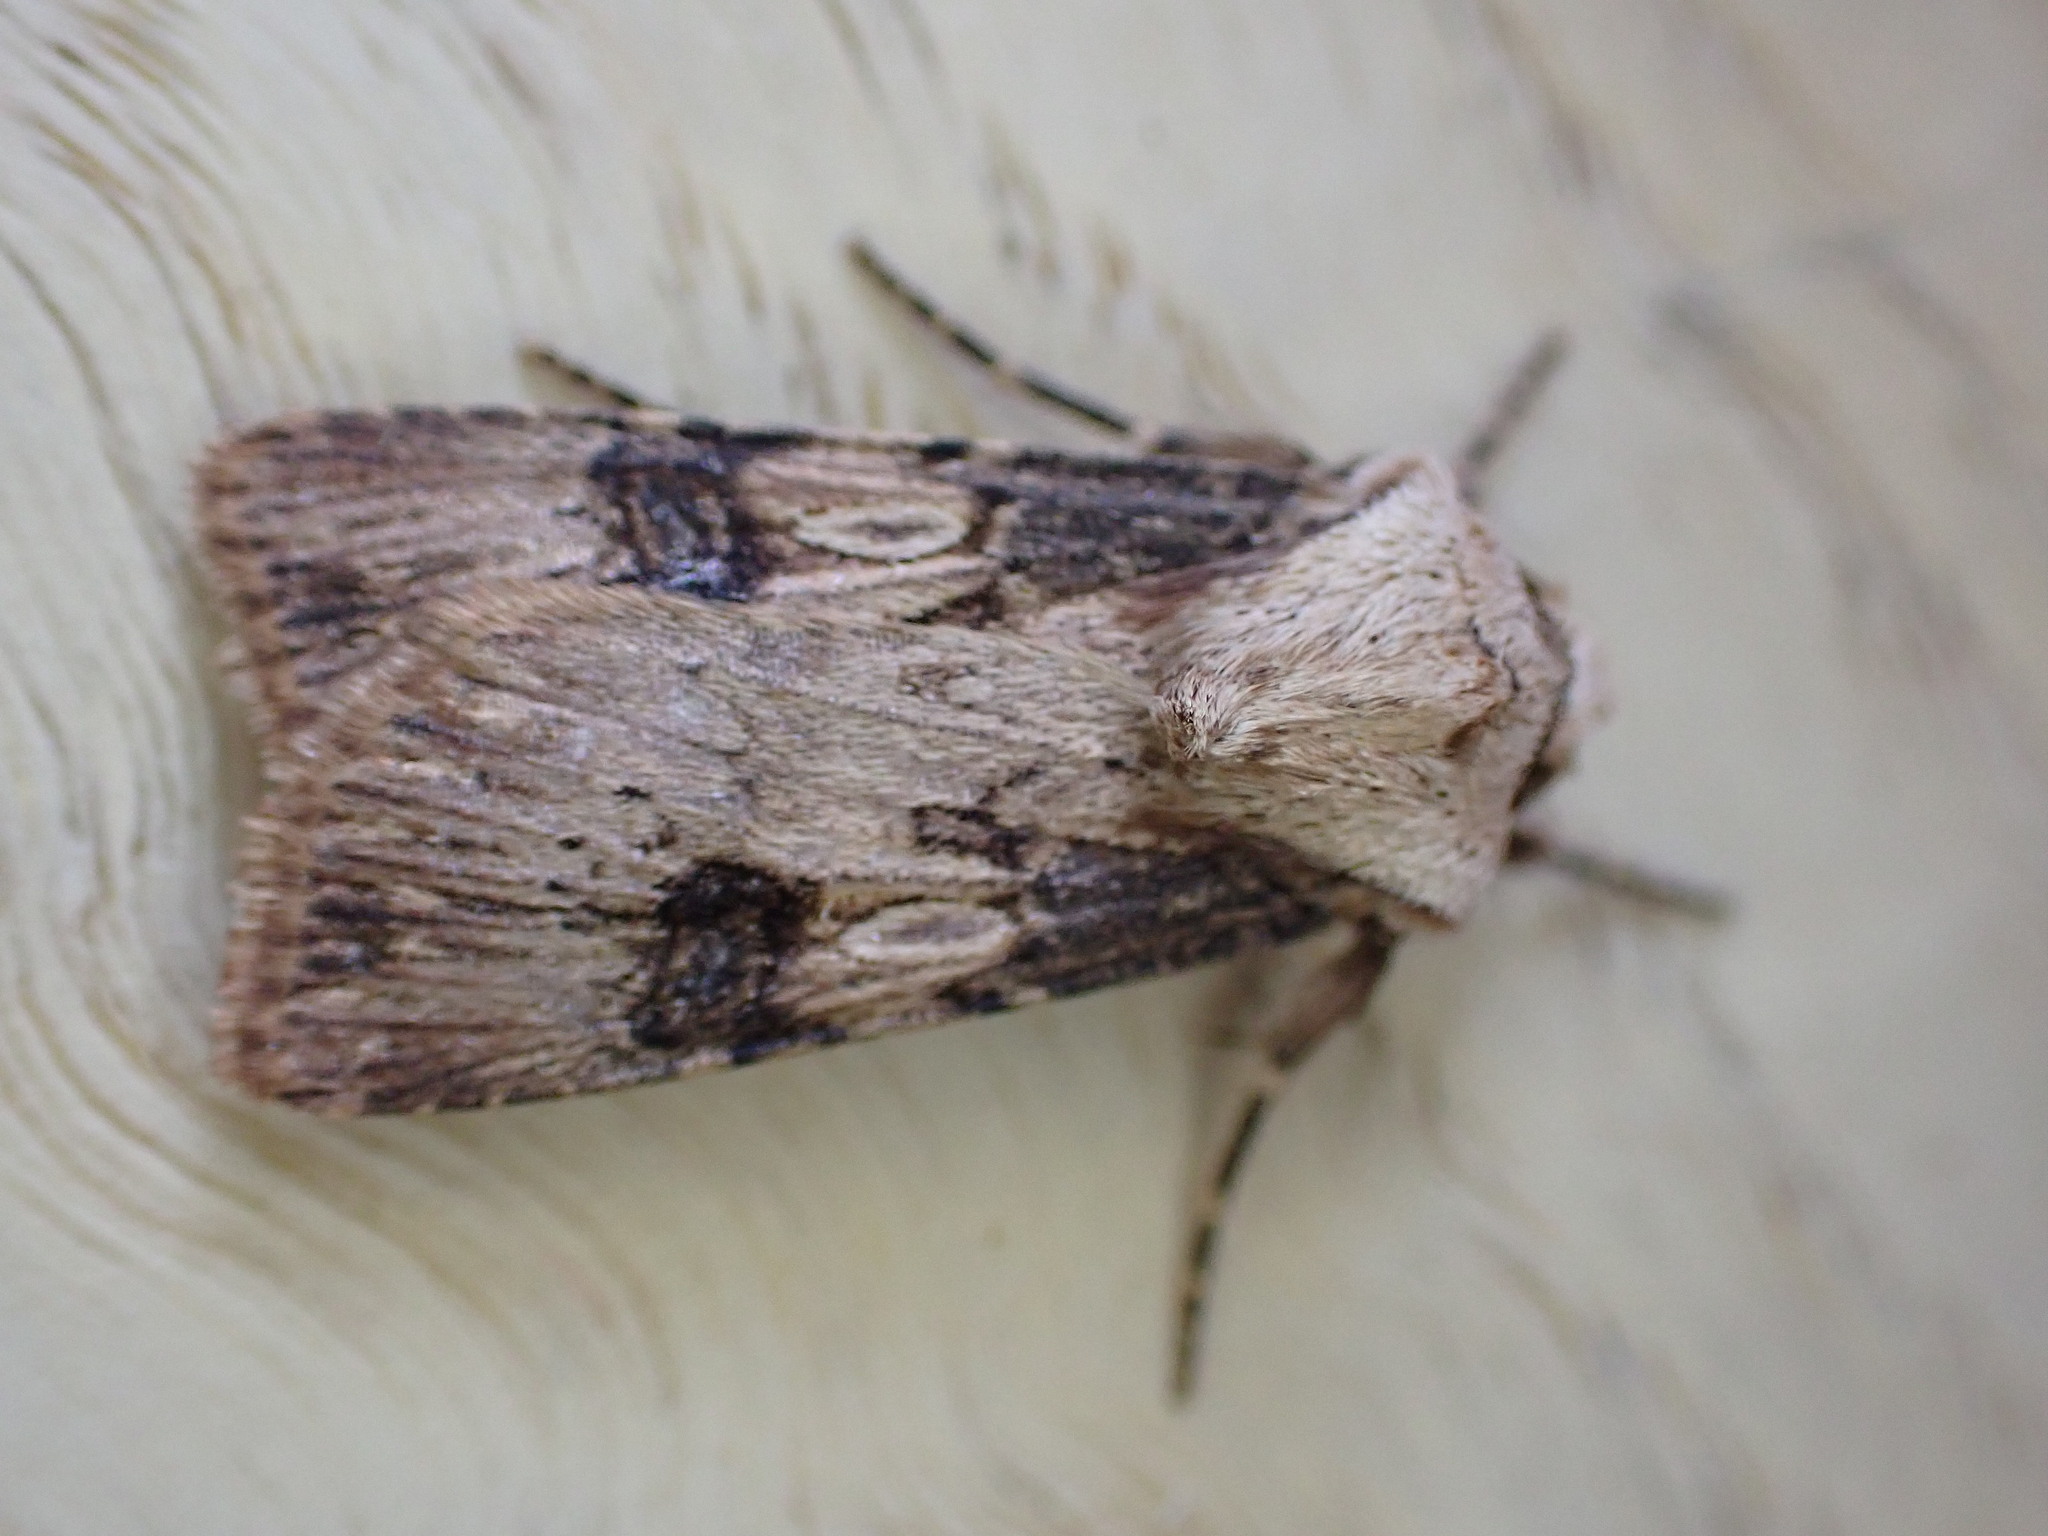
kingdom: Animalia
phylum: Arthropoda
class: Insecta
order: Lepidoptera
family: Noctuidae
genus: Agrotis
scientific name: Agrotis puta
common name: Shuttle-shaped dart
